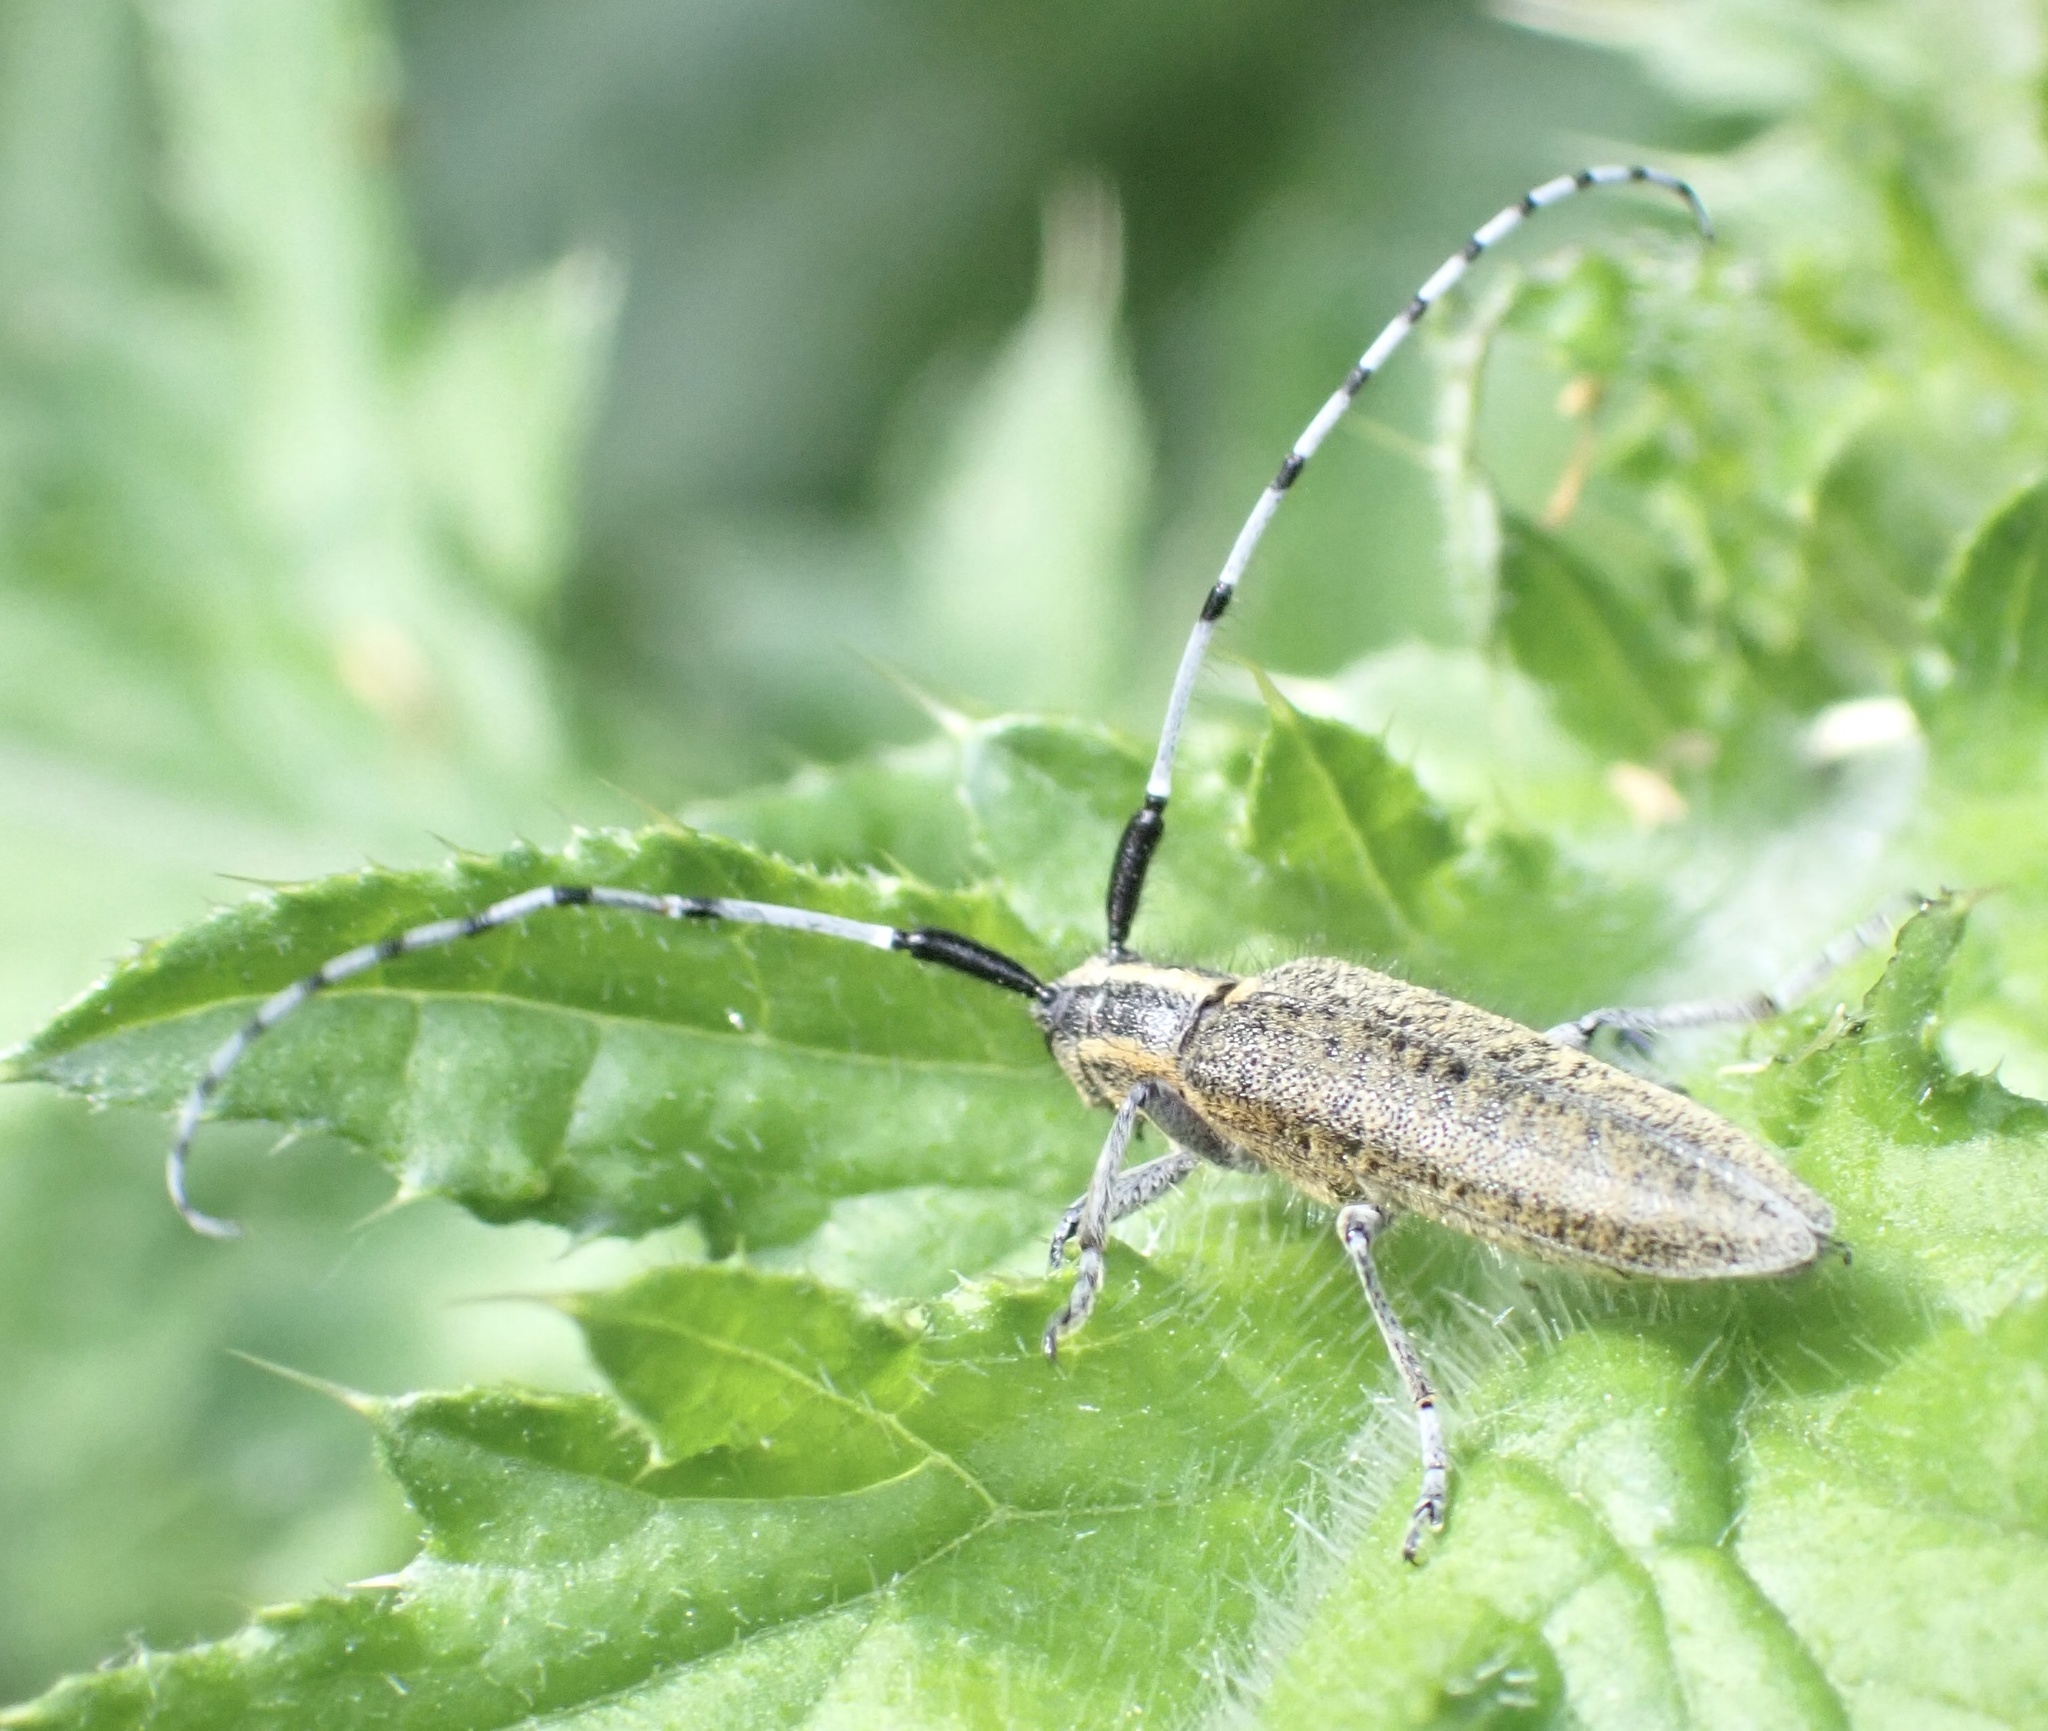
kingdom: Animalia
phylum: Arthropoda
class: Insecta
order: Coleoptera
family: Cerambycidae
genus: Agapanthia
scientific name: Agapanthia villosoviridescens
